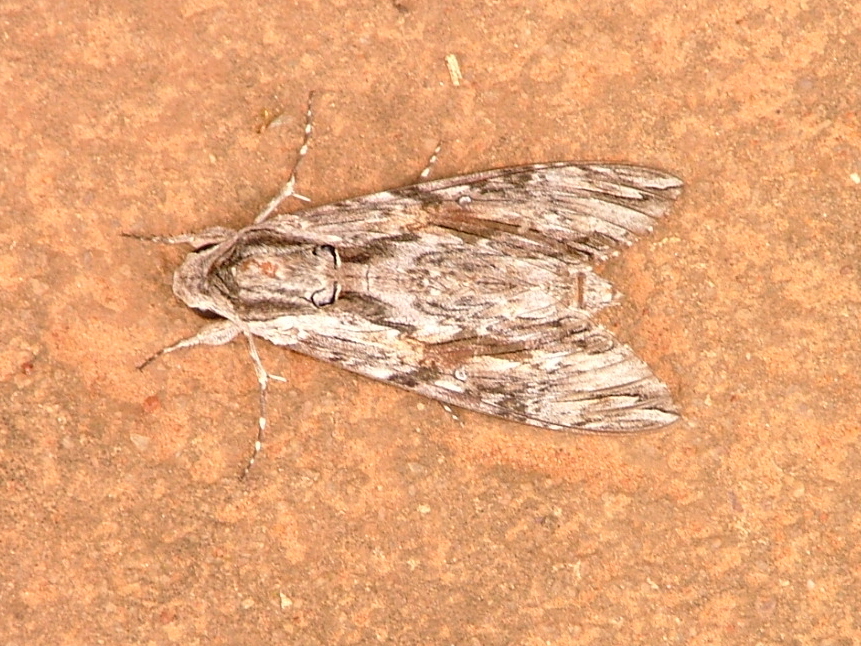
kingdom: Animalia
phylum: Arthropoda
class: Insecta
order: Lepidoptera
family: Sphingidae
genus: Agrius
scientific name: Agrius convolvuli
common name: Convolvulus hawkmoth
